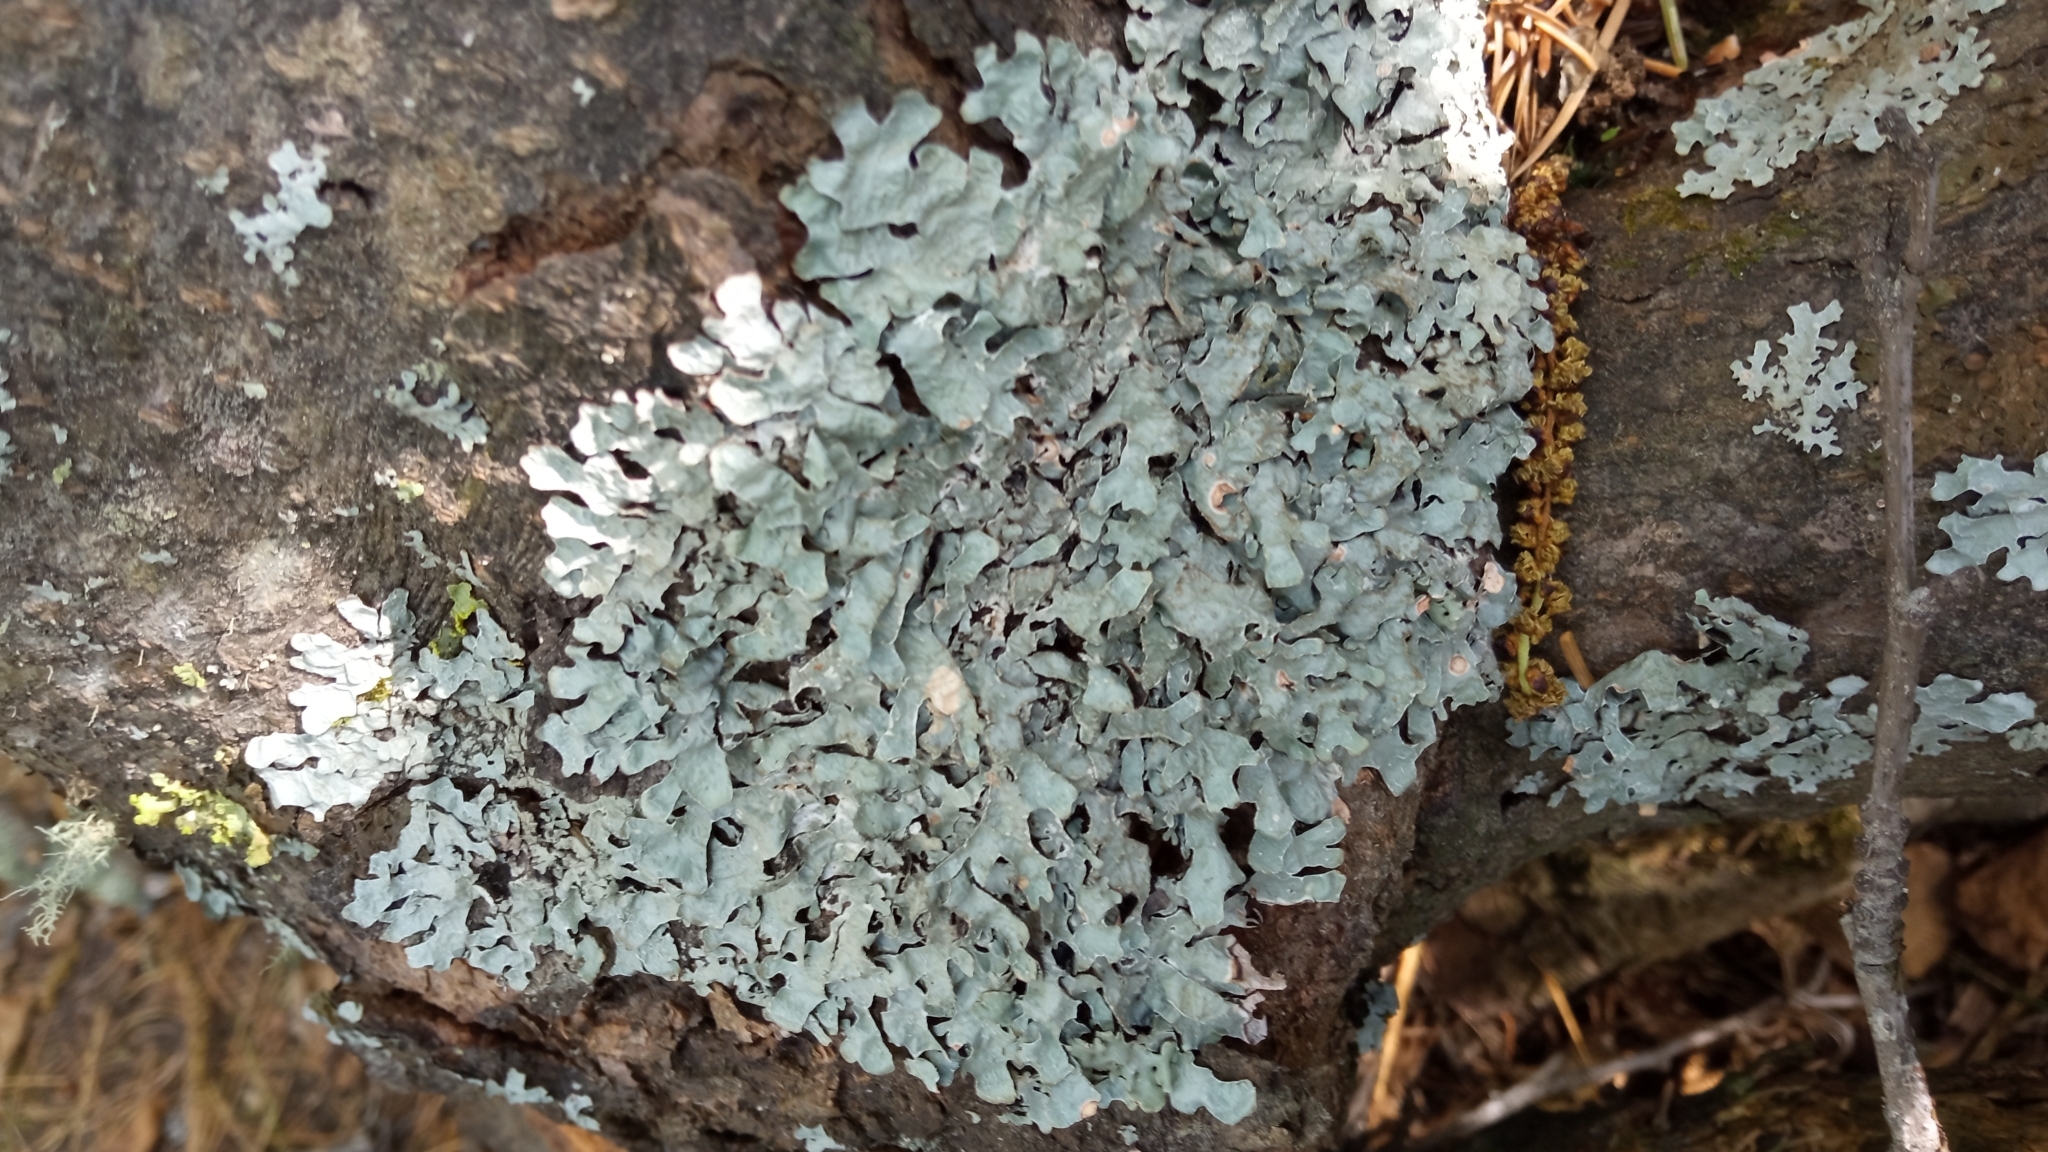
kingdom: Fungi
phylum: Ascomycota
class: Lecanoromycetes
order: Lecanorales
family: Parmeliaceae
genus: Parmelia
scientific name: Parmelia sulcata
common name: Netted shield lichen
